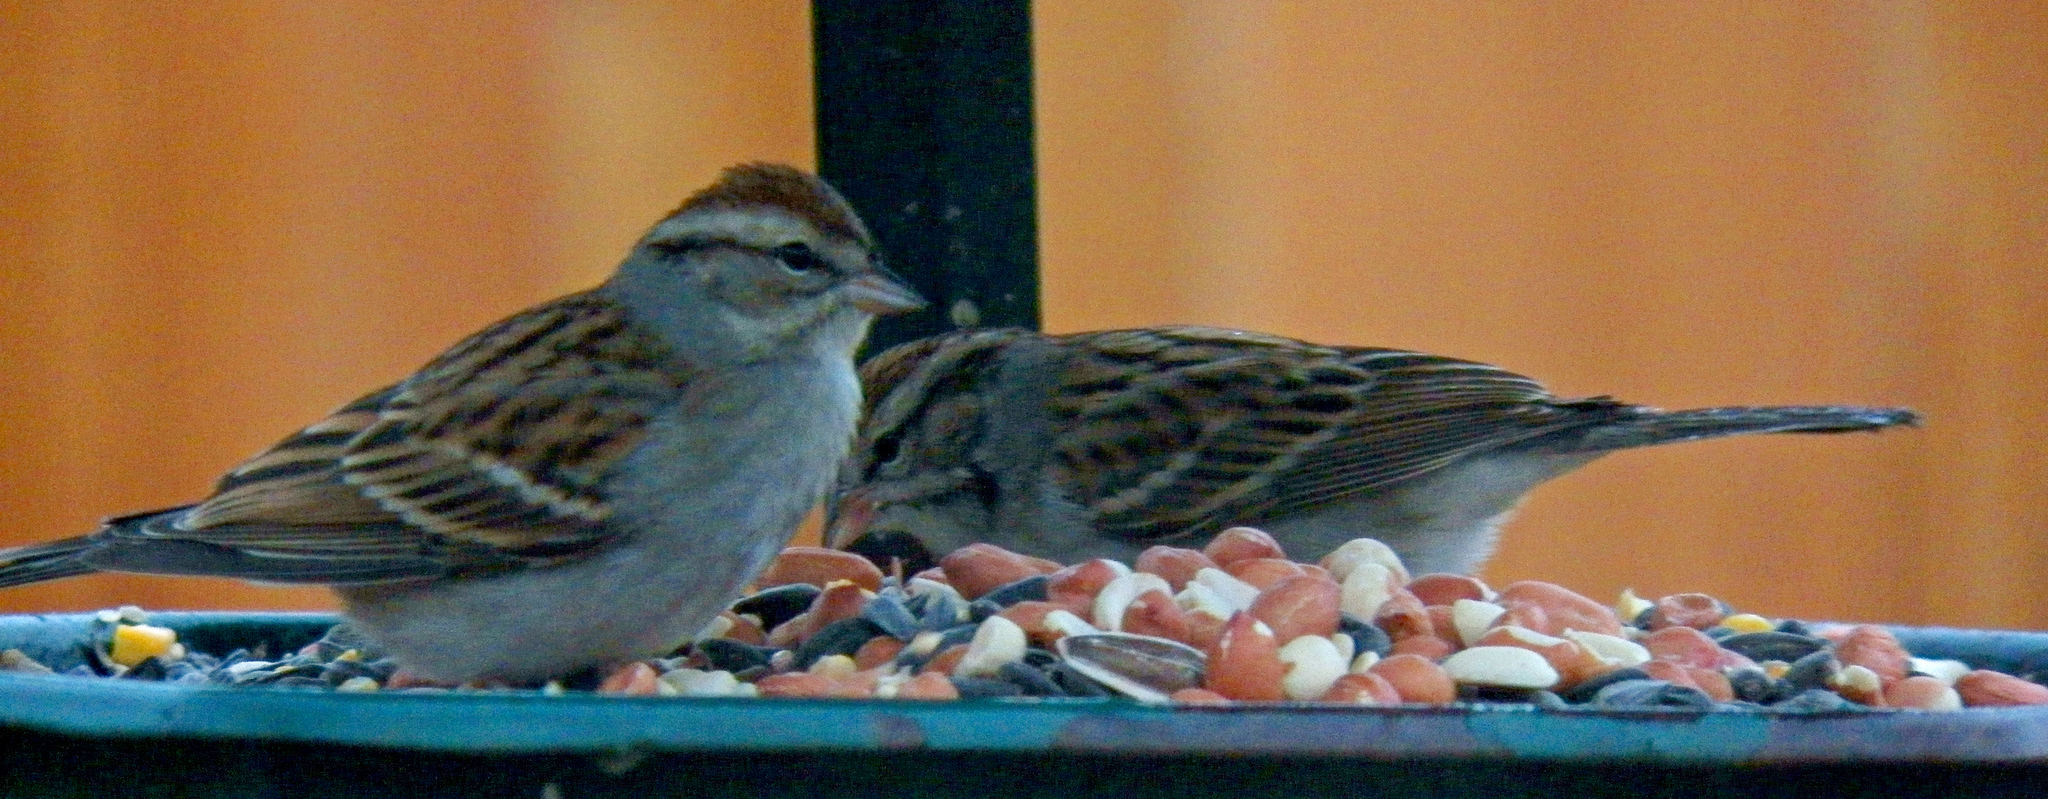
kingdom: Animalia
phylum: Chordata
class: Aves
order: Passeriformes
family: Passerellidae
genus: Spizella
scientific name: Spizella passerina
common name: Chipping sparrow
